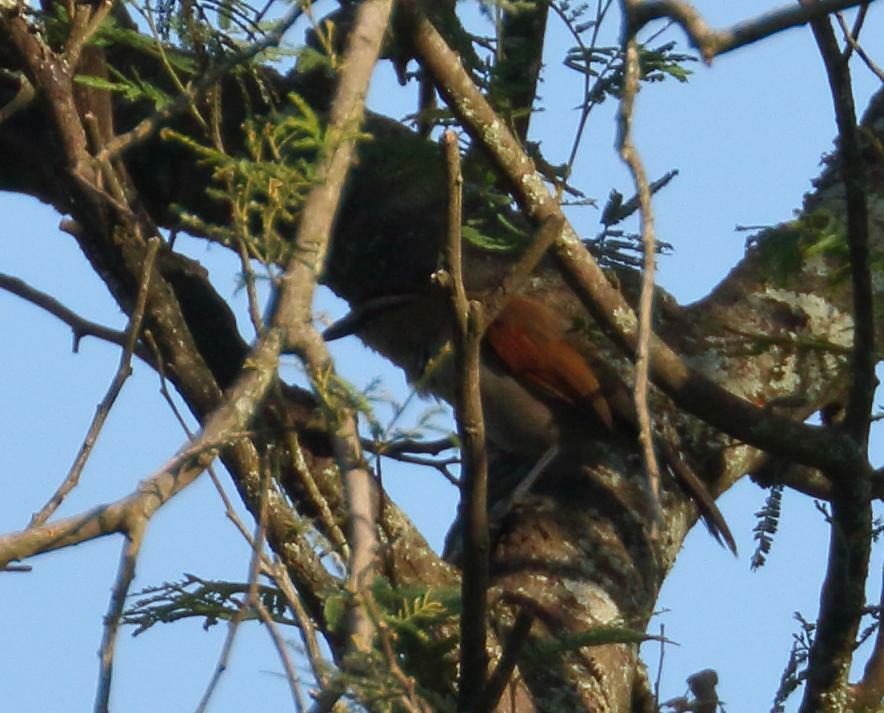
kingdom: Animalia
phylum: Chordata
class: Aves
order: Passeriformes
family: Malaconotidae
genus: Tchagra
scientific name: Tchagra tchagra
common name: Southern tchagra
